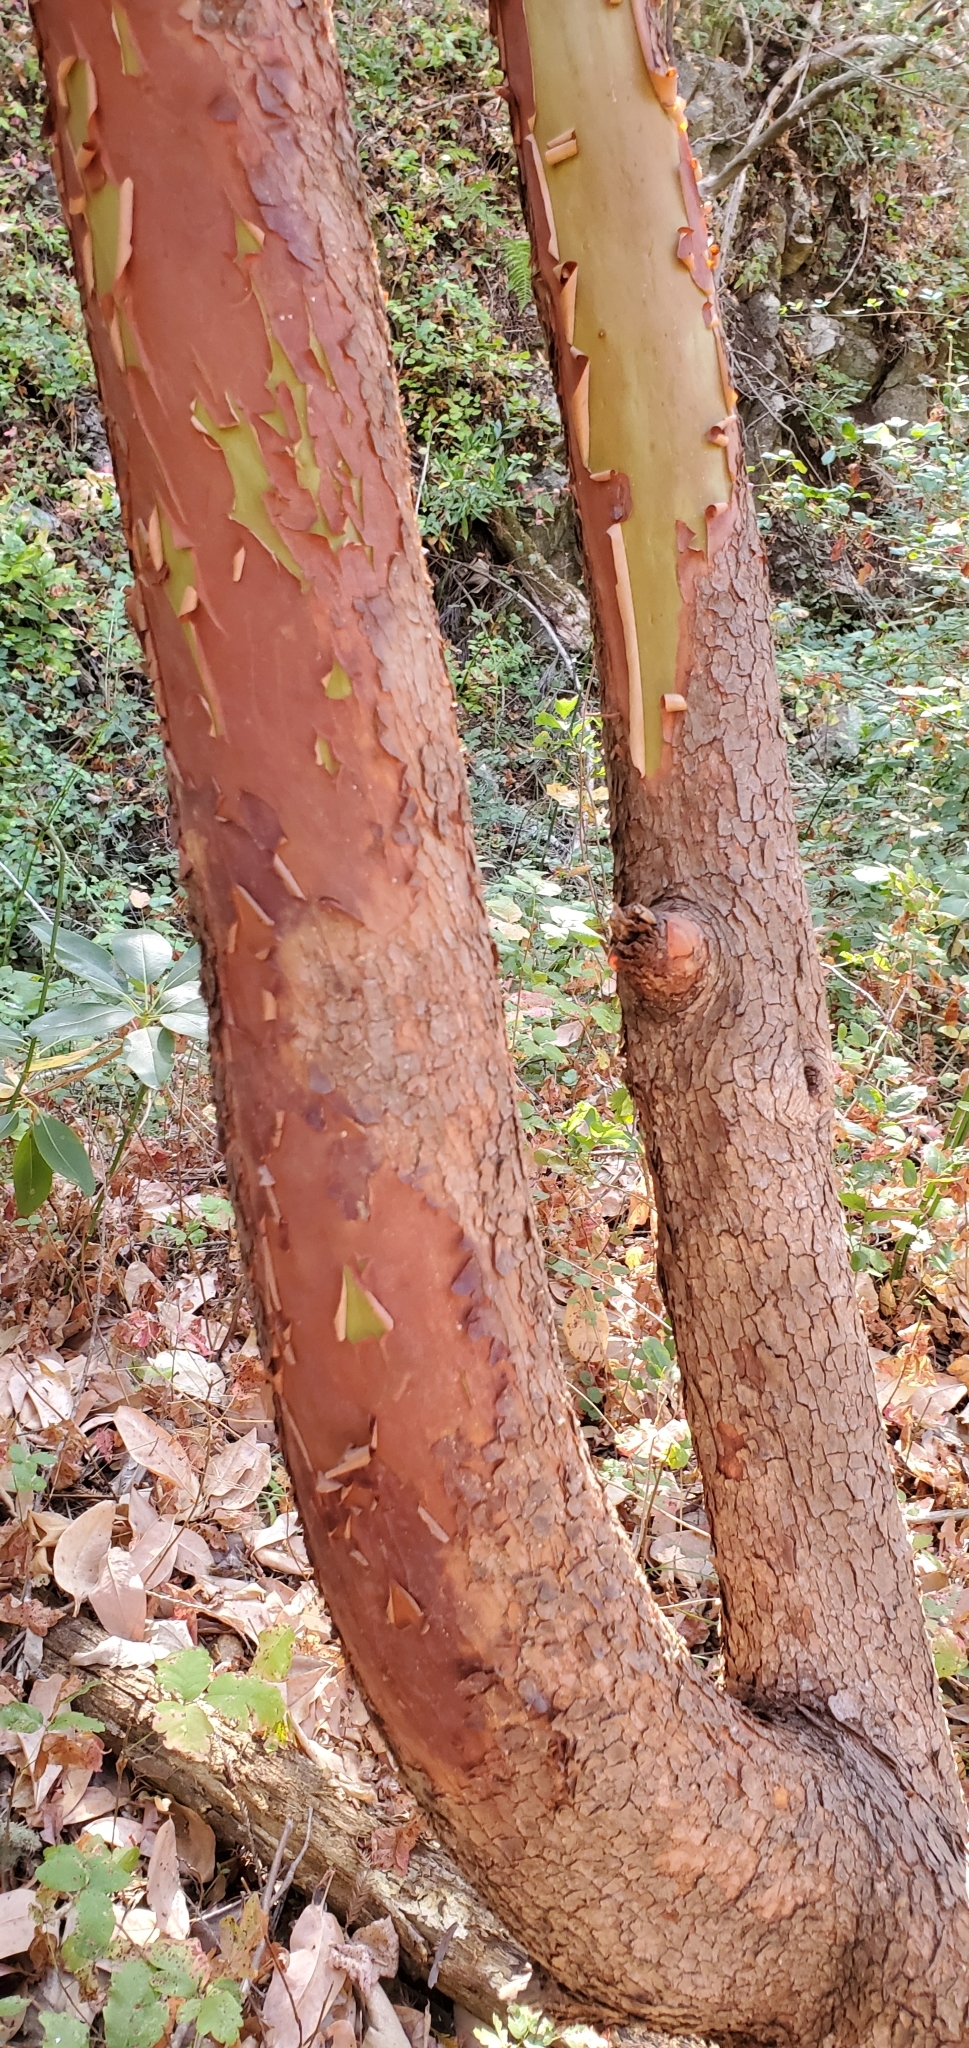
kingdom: Plantae
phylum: Tracheophyta
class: Magnoliopsida
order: Ericales
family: Ericaceae
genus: Arbutus
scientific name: Arbutus menziesii
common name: Pacific madrone
